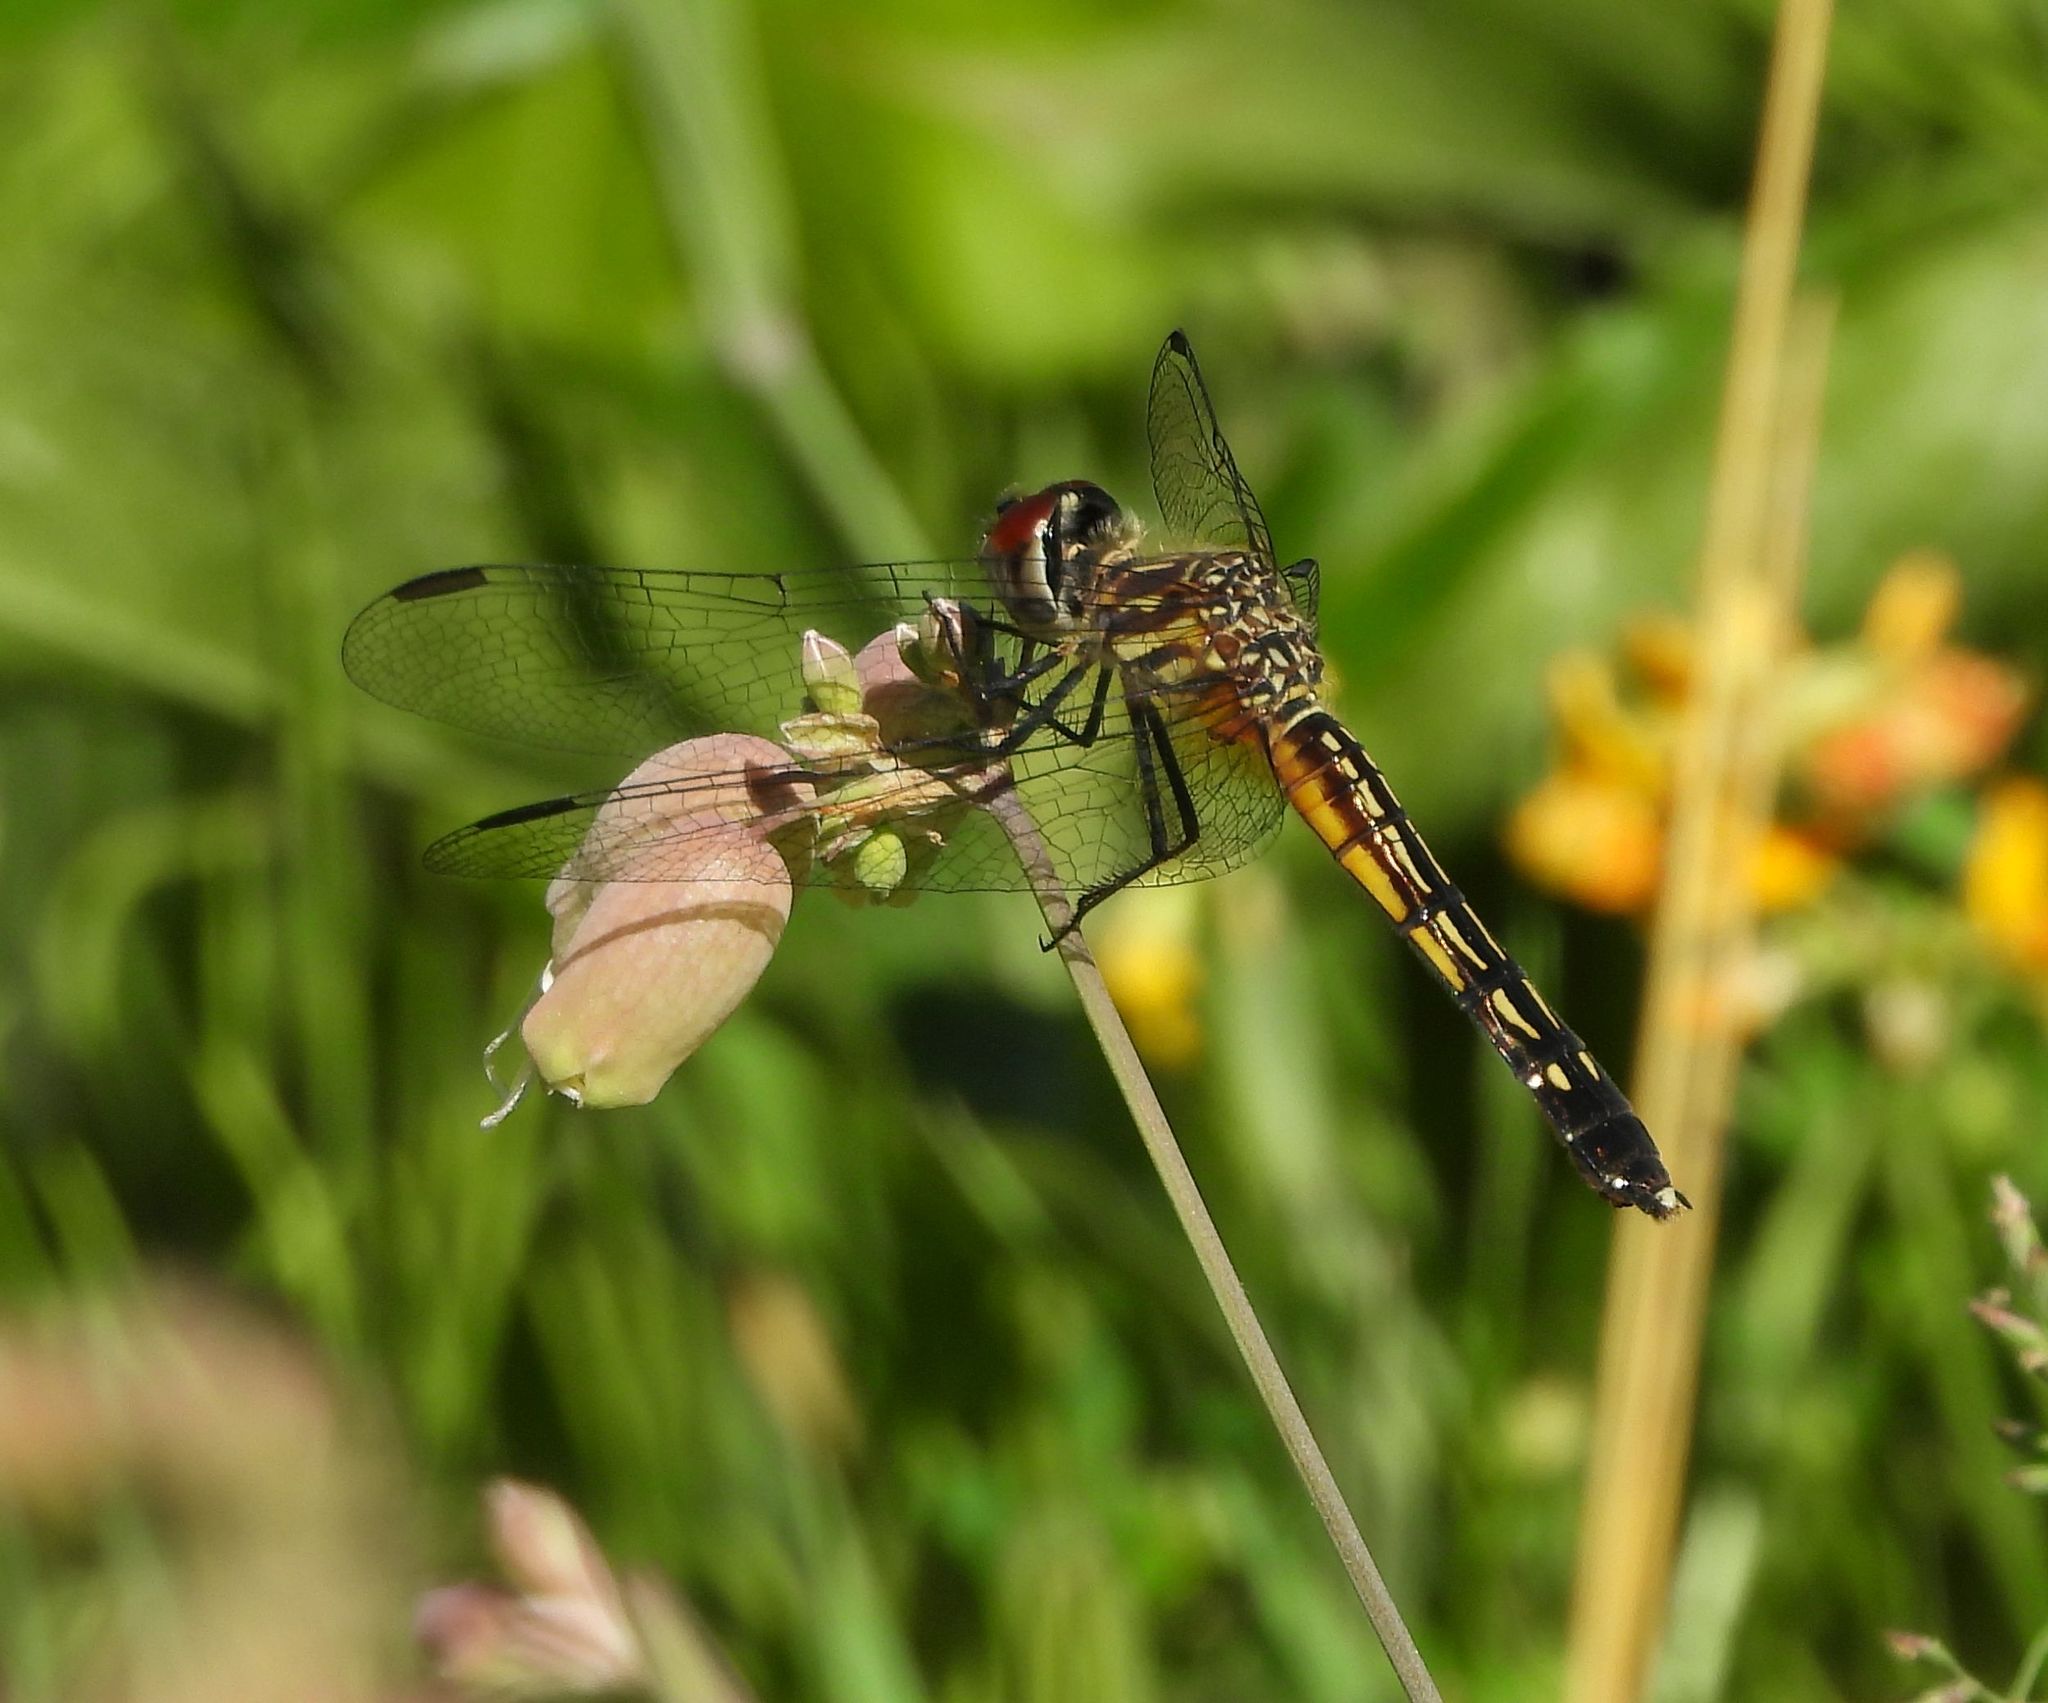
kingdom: Animalia
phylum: Arthropoda
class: Insecta
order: Odonata
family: Libellulidae
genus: Pachydiplax
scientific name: Pachydiplax longipennis
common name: Blue dasher
